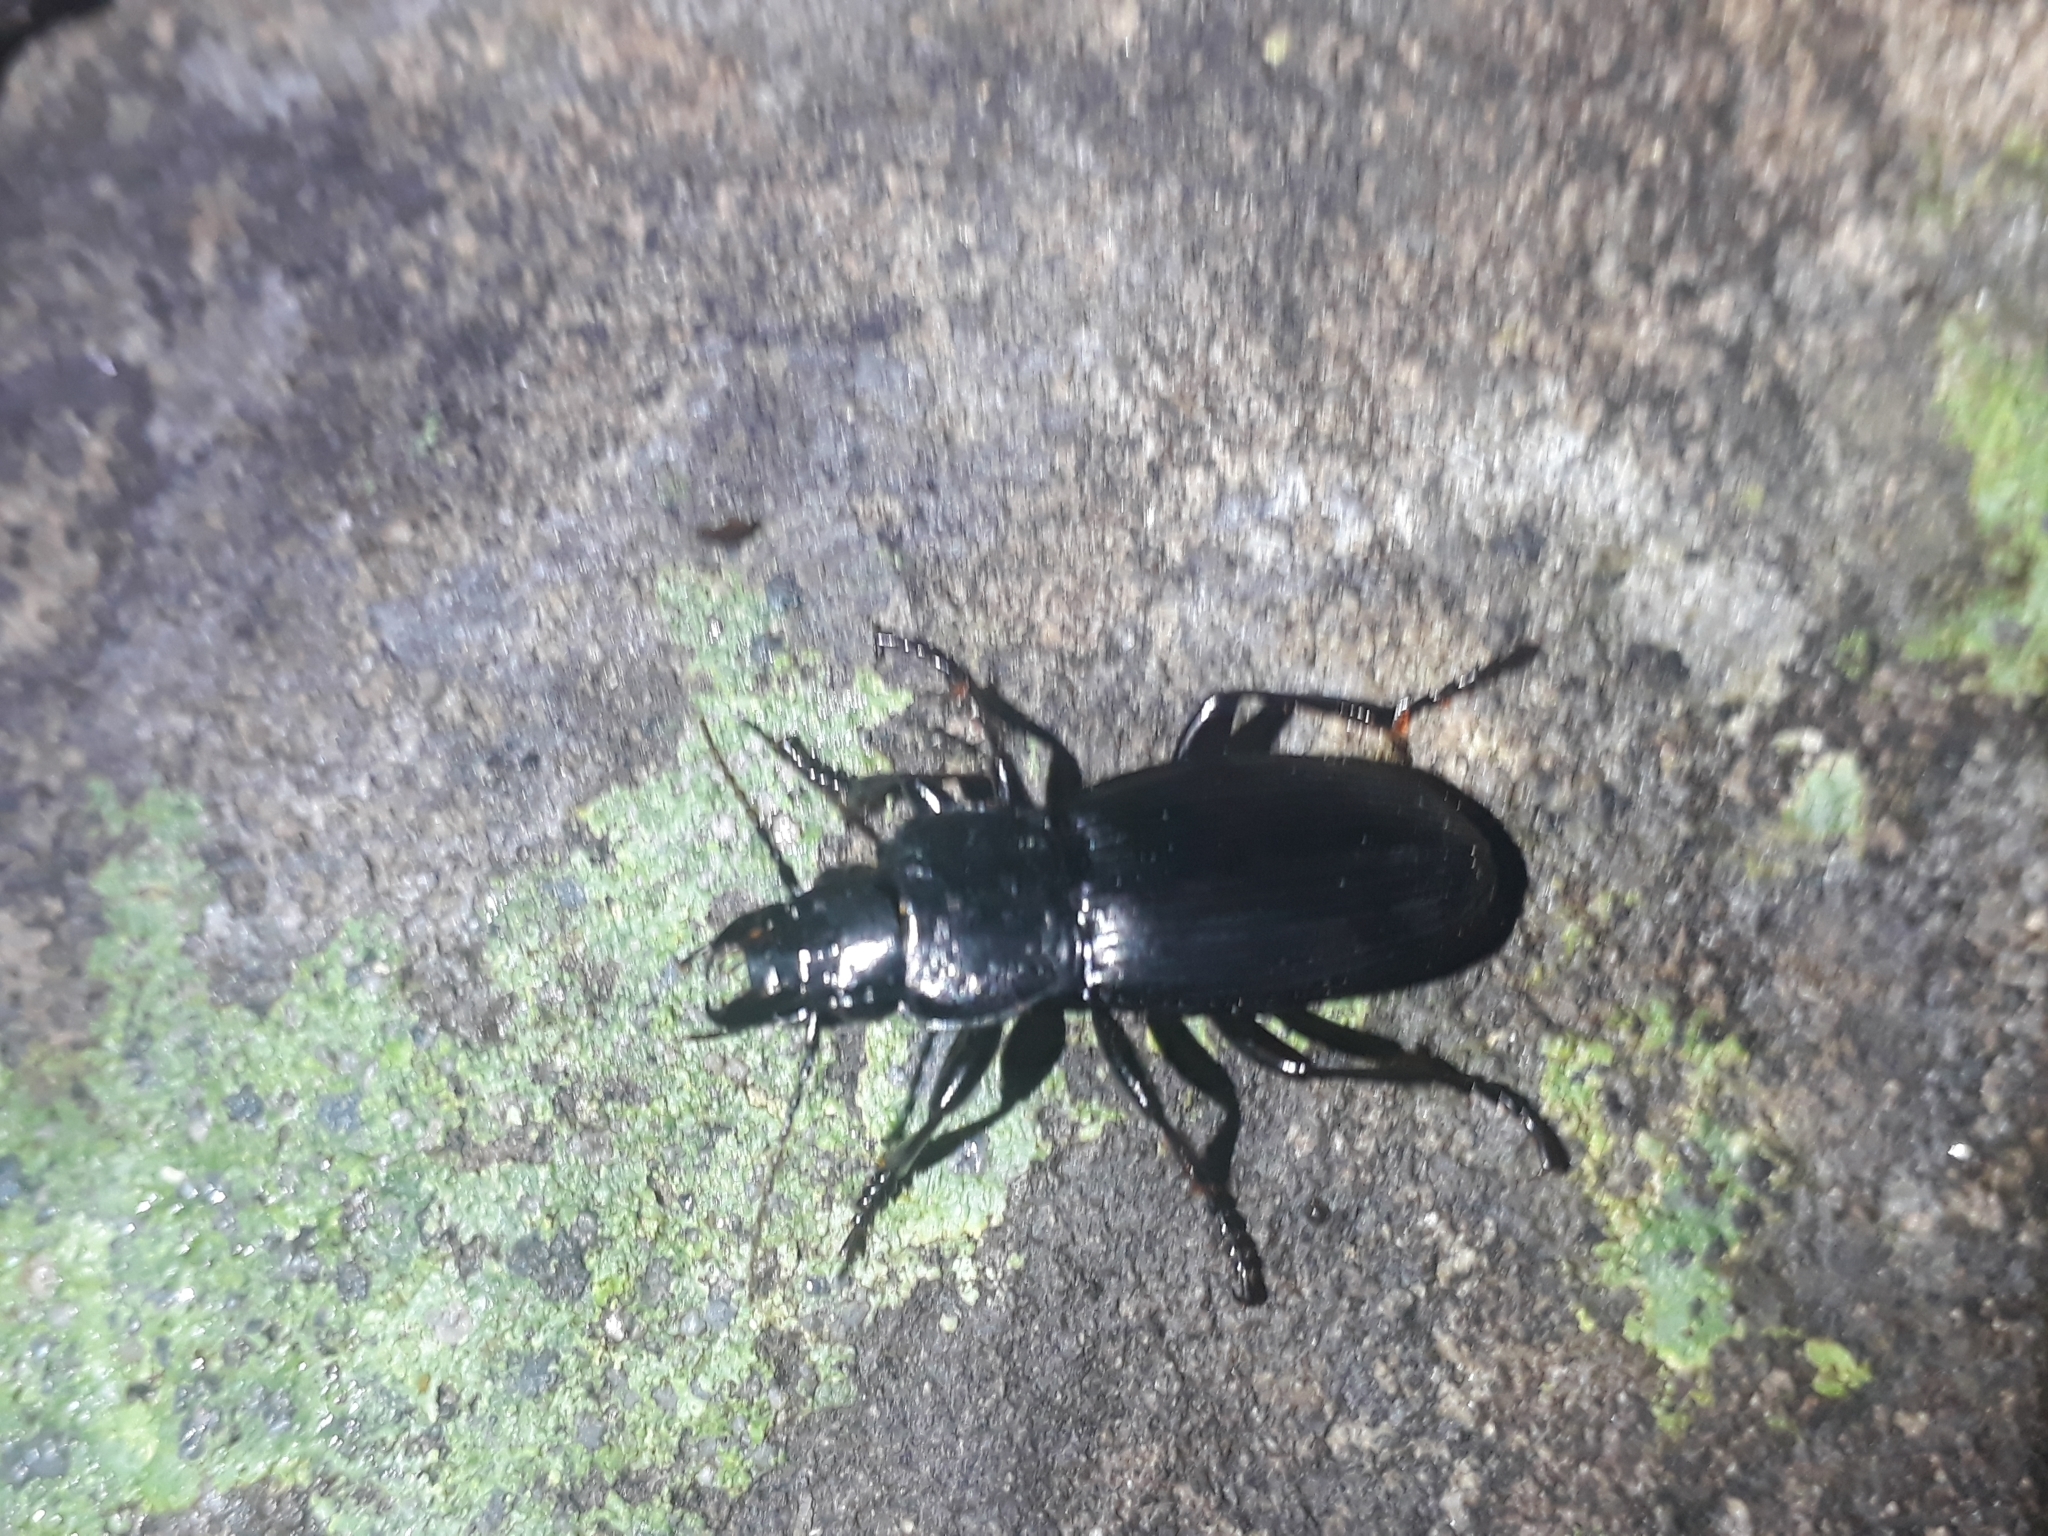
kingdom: Animalia
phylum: Arthropoda
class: Insecta
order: Coleoptera
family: Carabidae
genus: Plocamostethus
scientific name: Plocamostethus planiusculus
